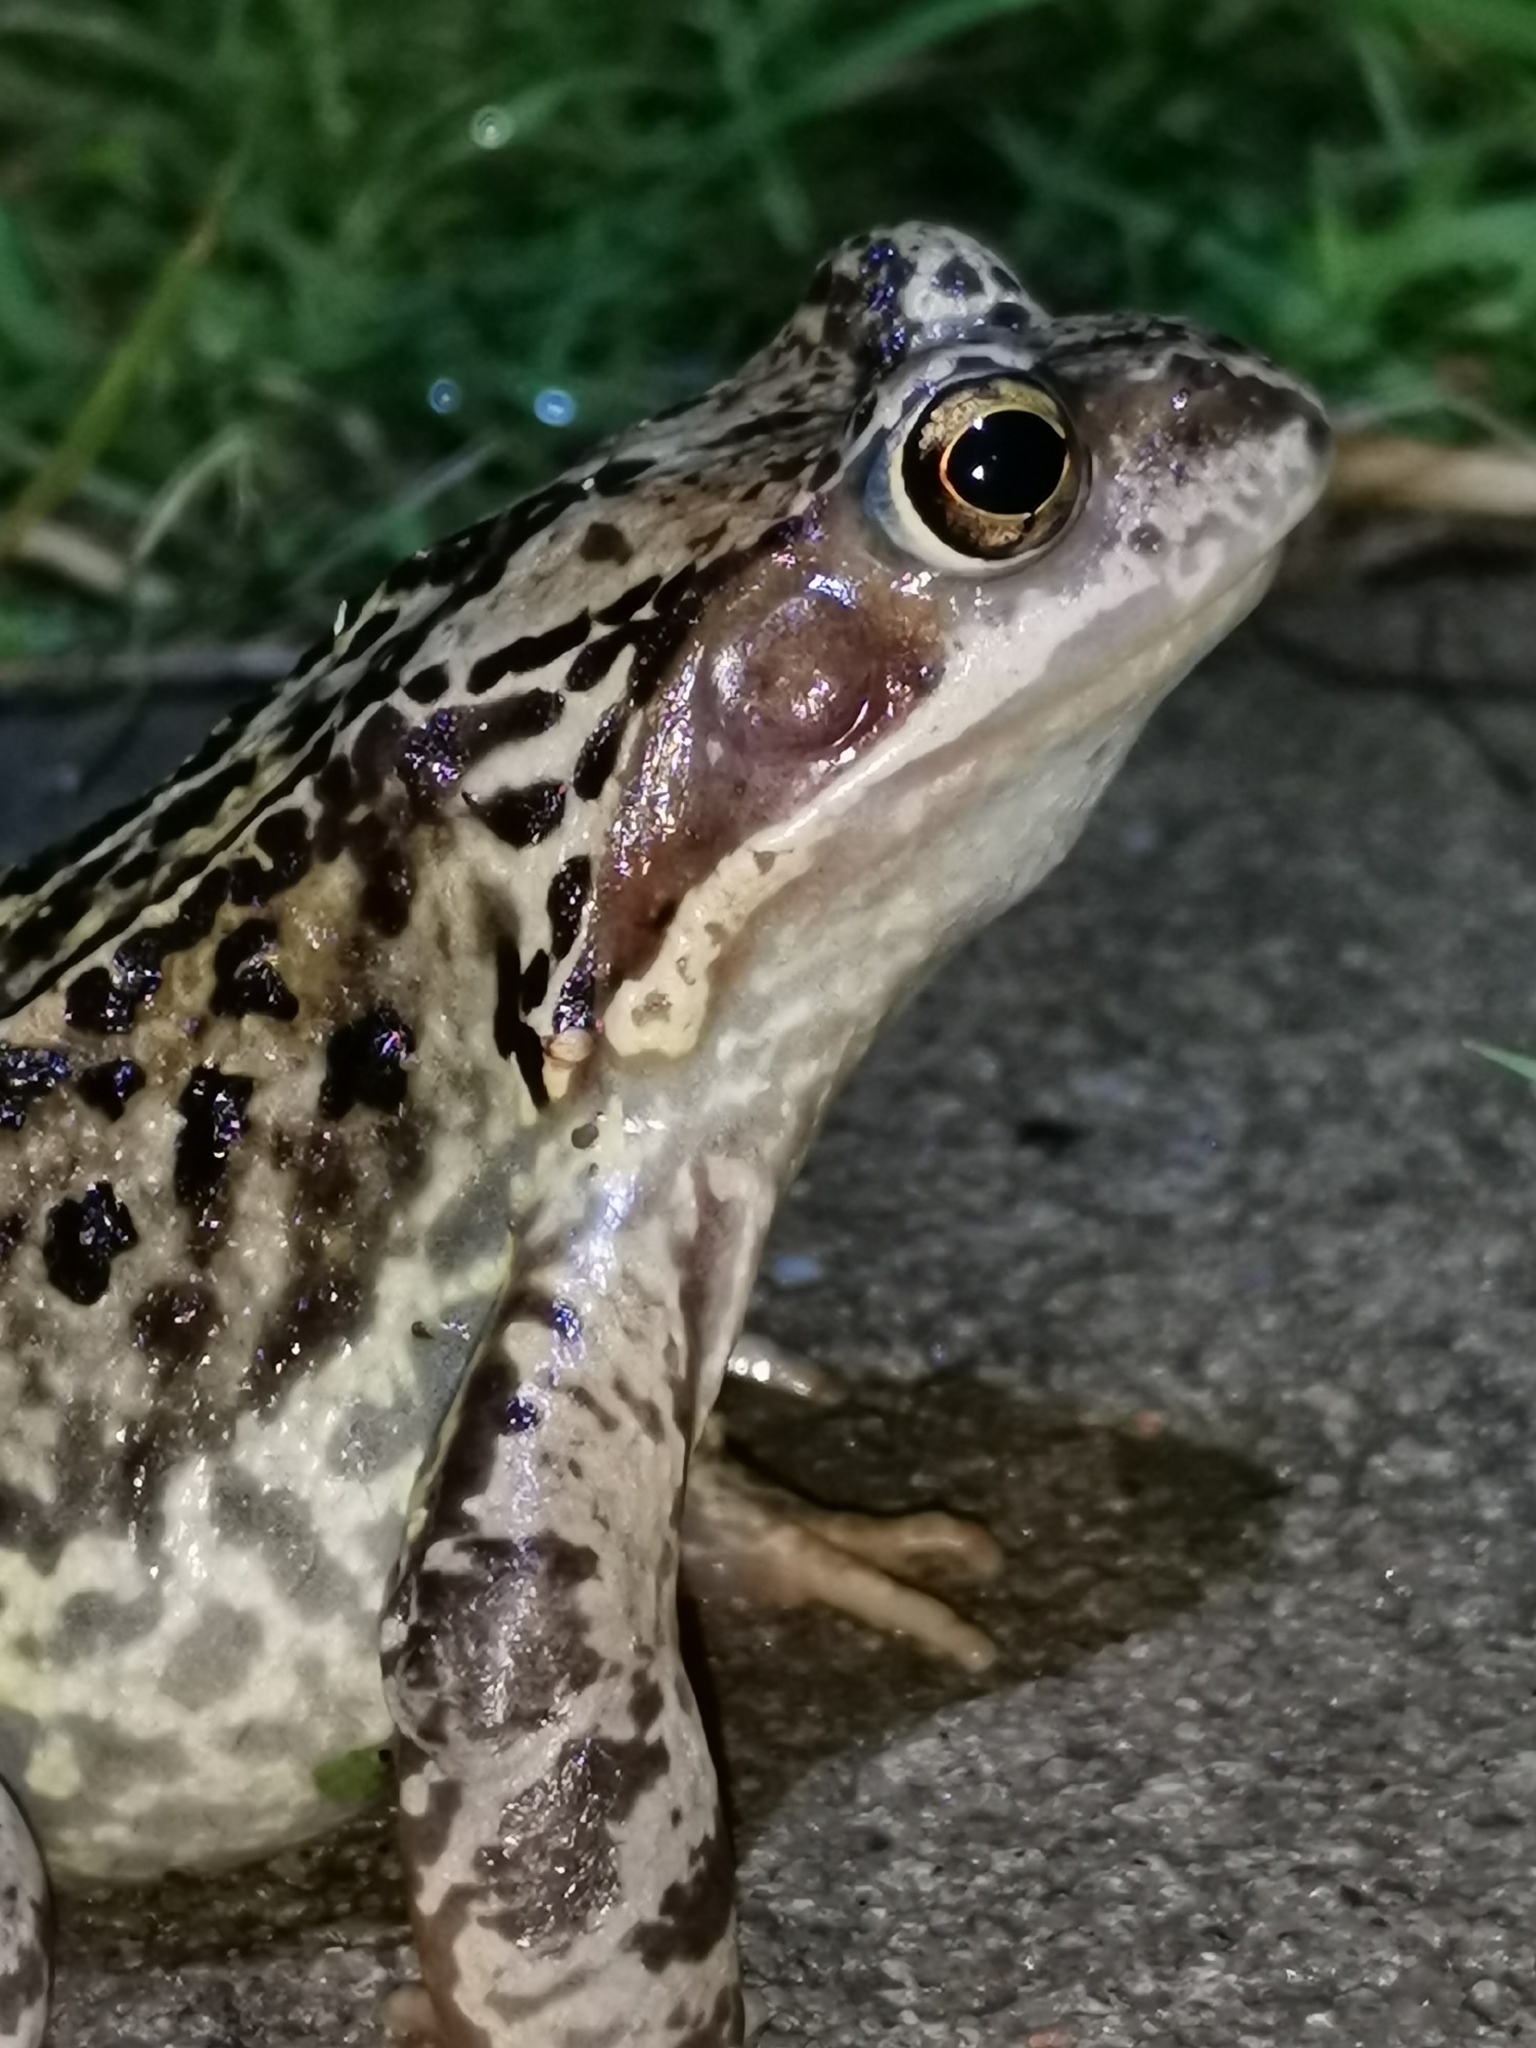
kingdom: Animalia
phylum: Chordata
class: Amphibia
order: Anura
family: Ranidae
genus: Rana
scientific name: Rana temporaria
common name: Common frog
